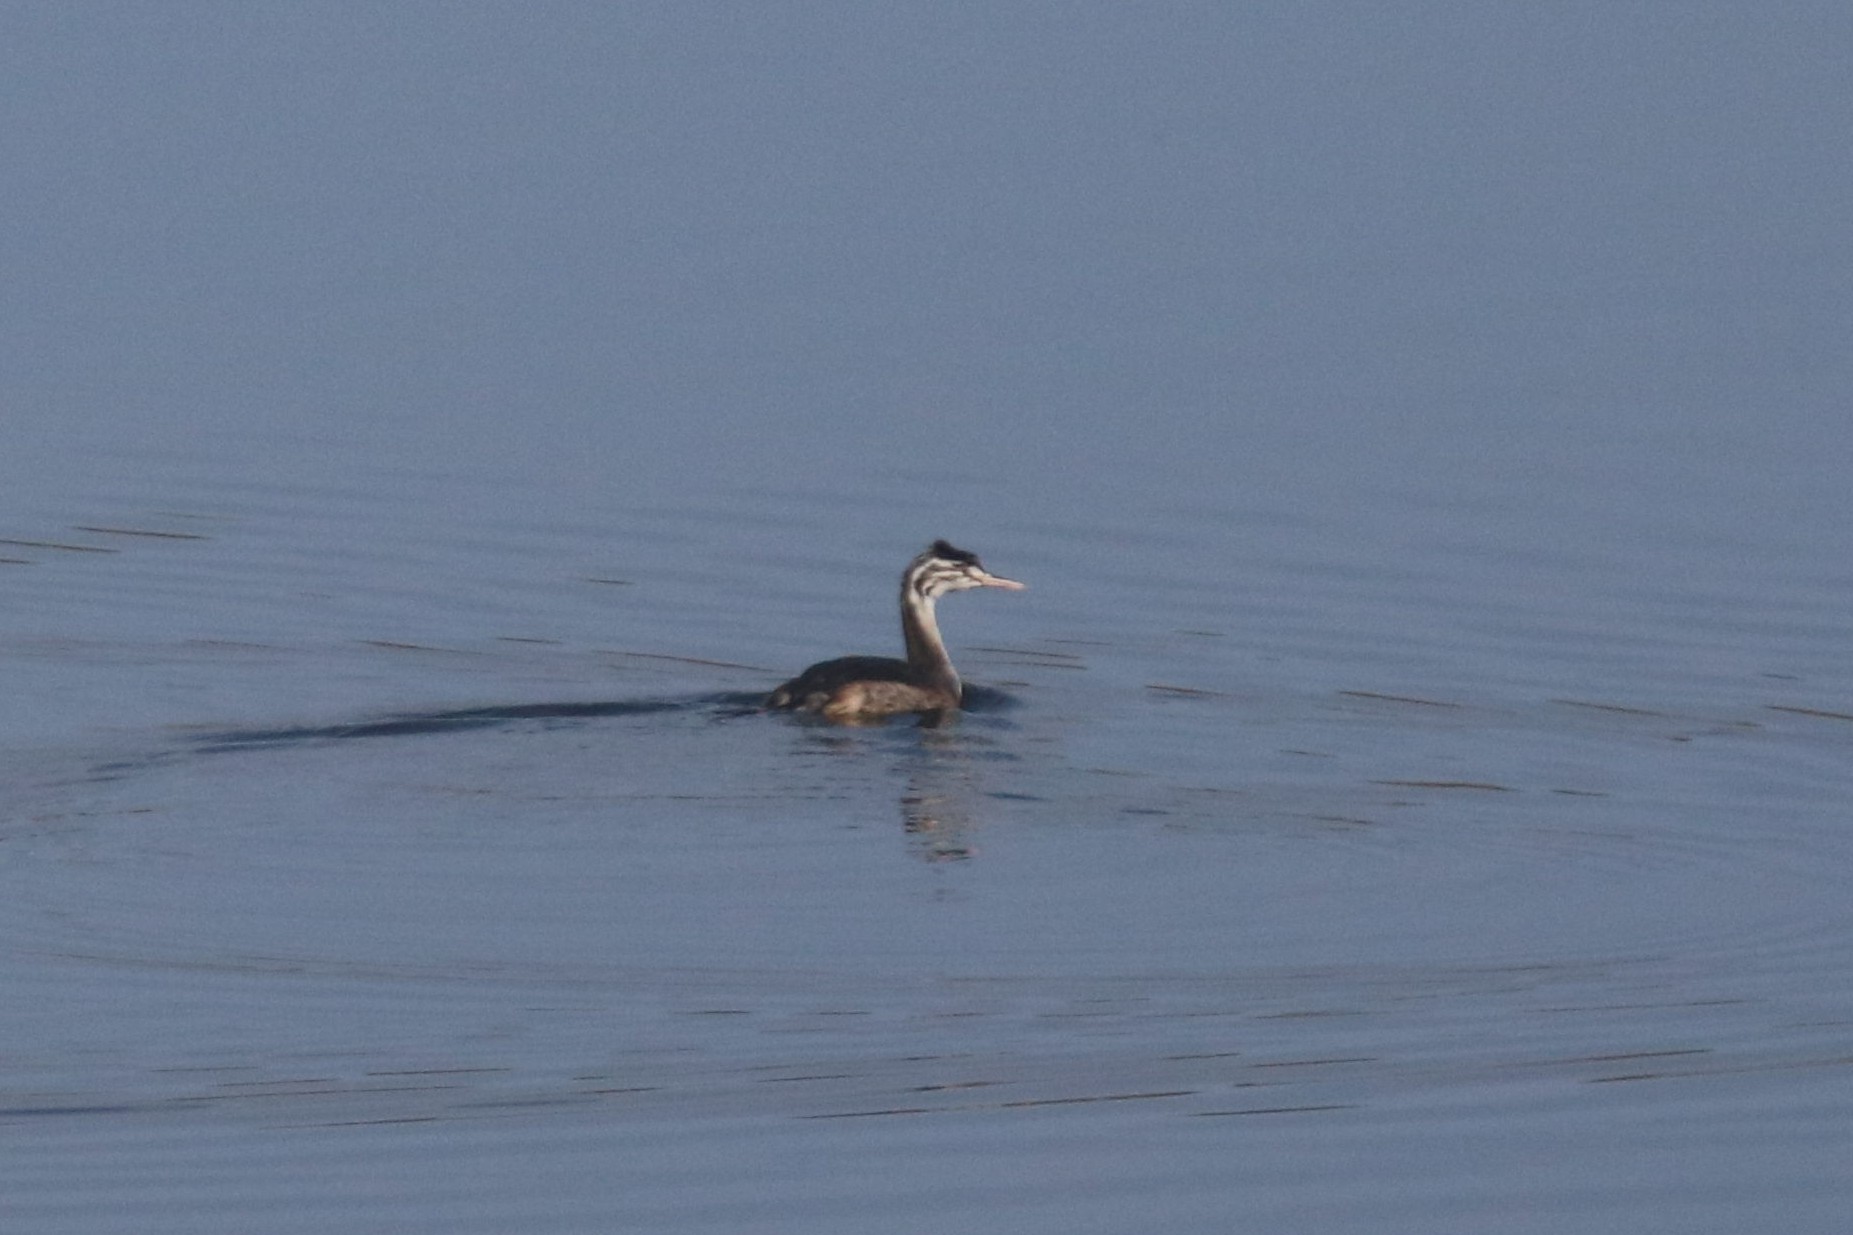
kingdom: Animalia
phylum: Chordata
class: Aves
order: Podicipediformes
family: Podicipedidae
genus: Podiceps
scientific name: Podiceps cristatus
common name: Great crested grebe
